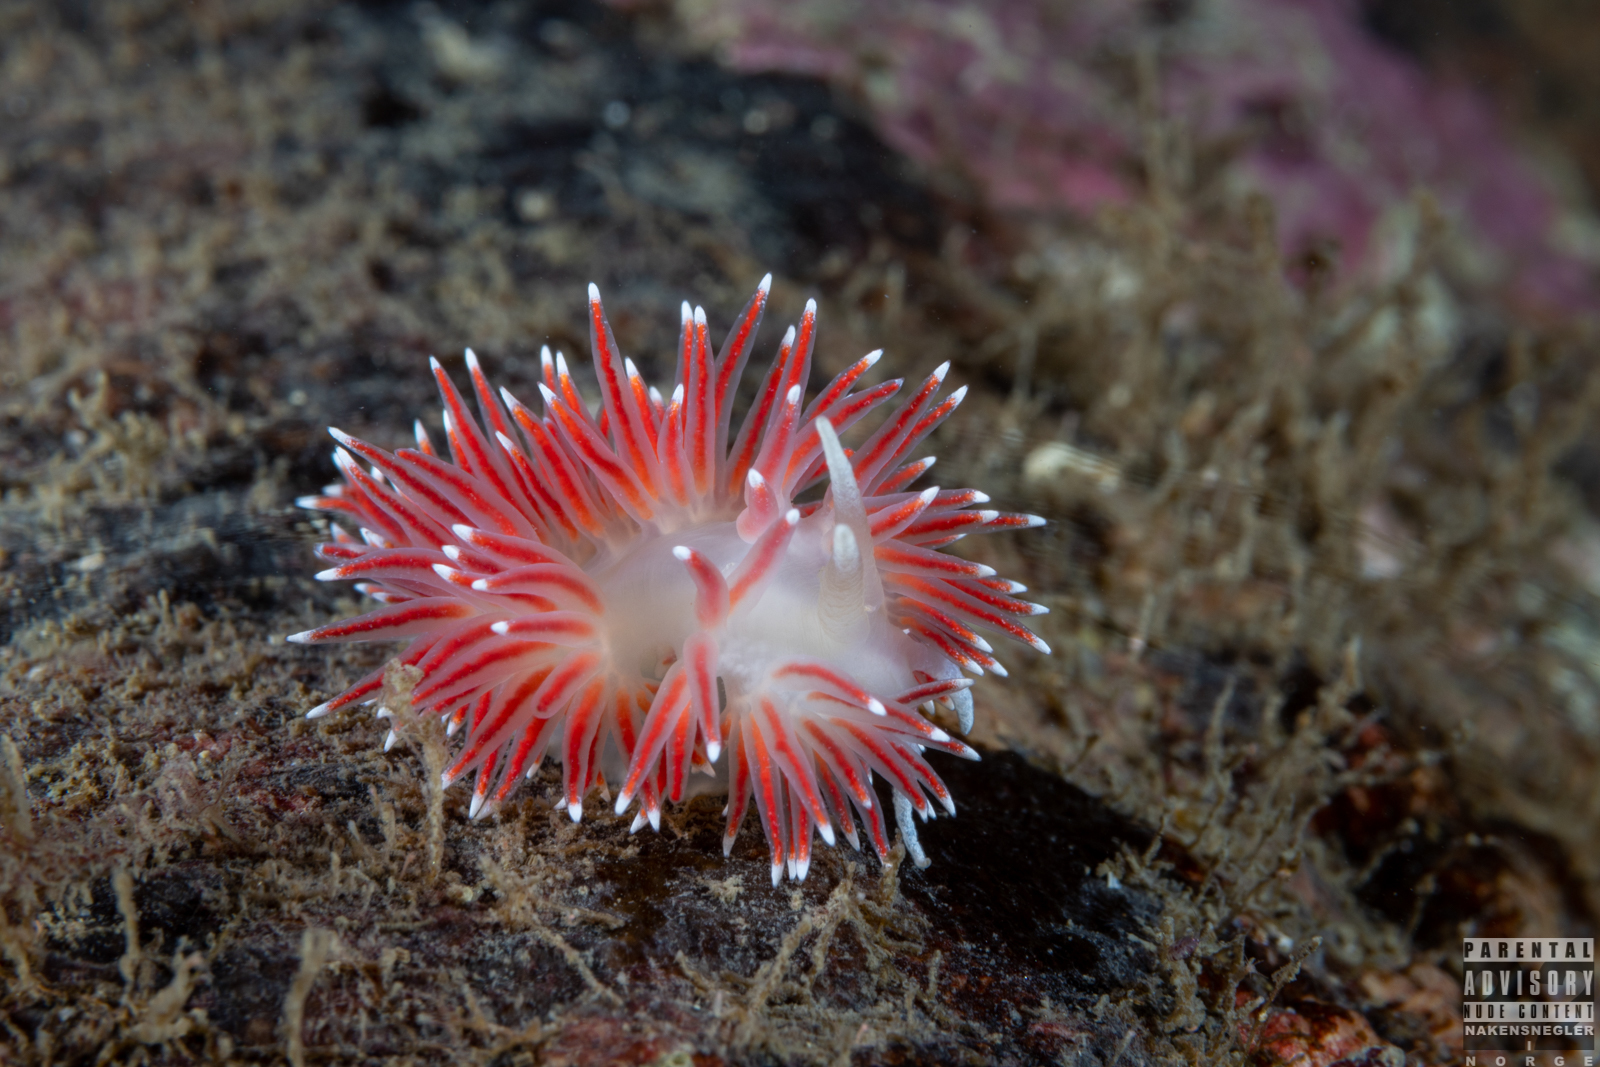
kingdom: Animalia
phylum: Mollusca
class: Gastropoda
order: Nudibranchia
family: Flabellinidae
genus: Carronella
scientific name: Carronella pellucida
